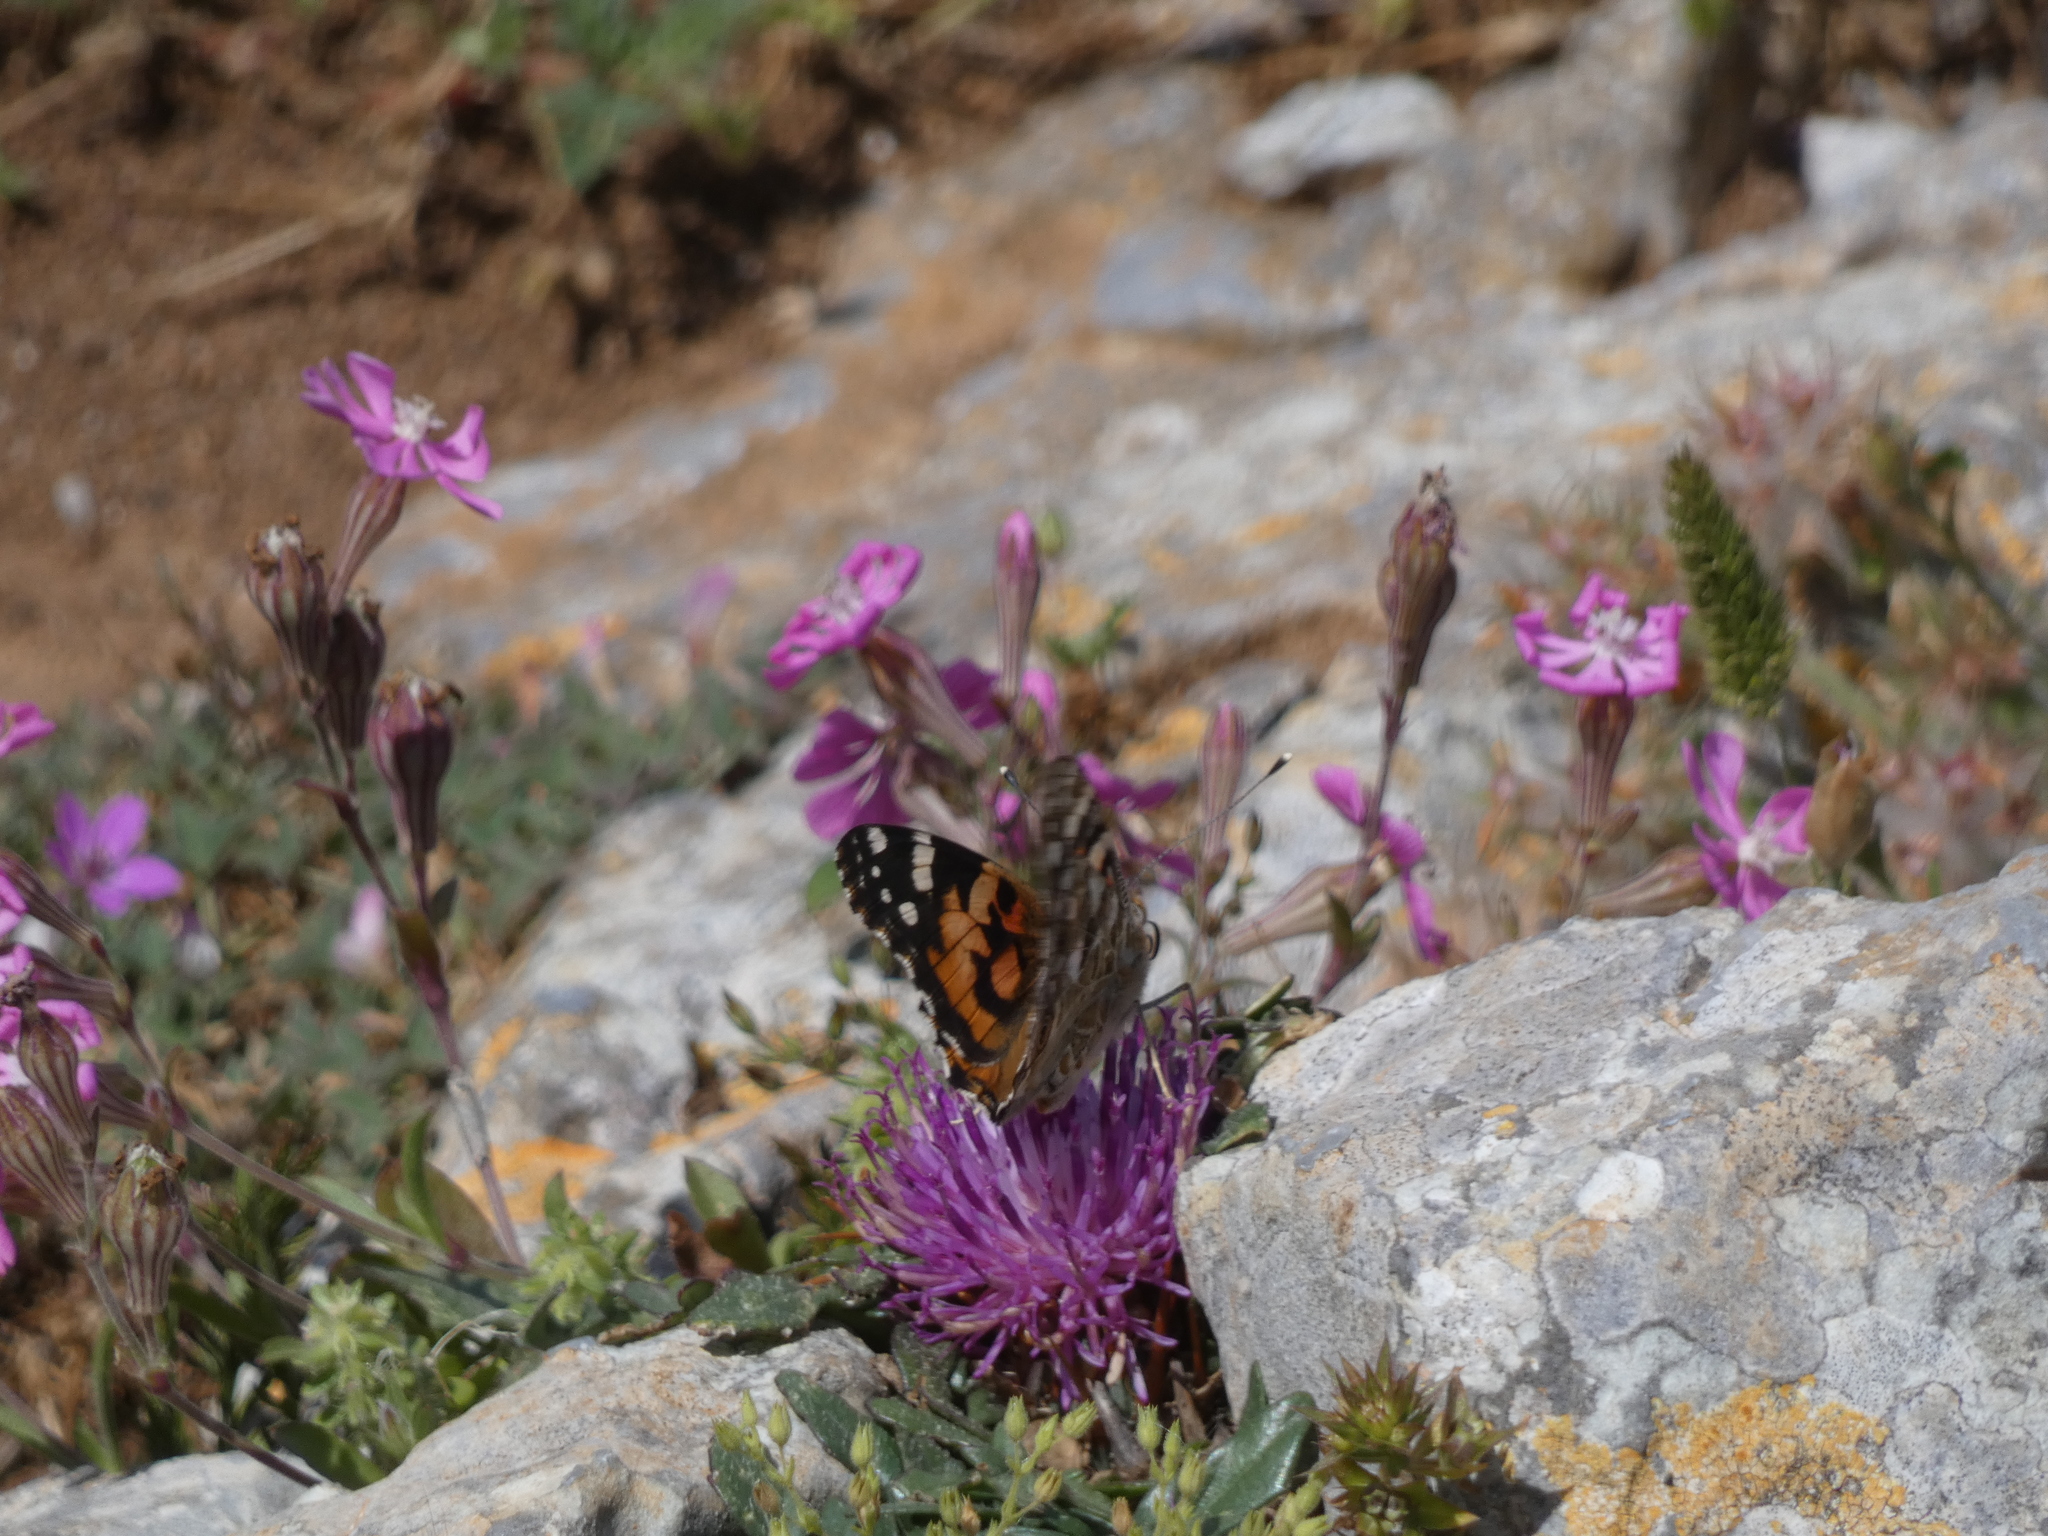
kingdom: Animalia
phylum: Arthropoda
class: Insecta
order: Lepidoptera
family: Nymphalidae
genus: Vanessa
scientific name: Vanessa cardui
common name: Painted lady
